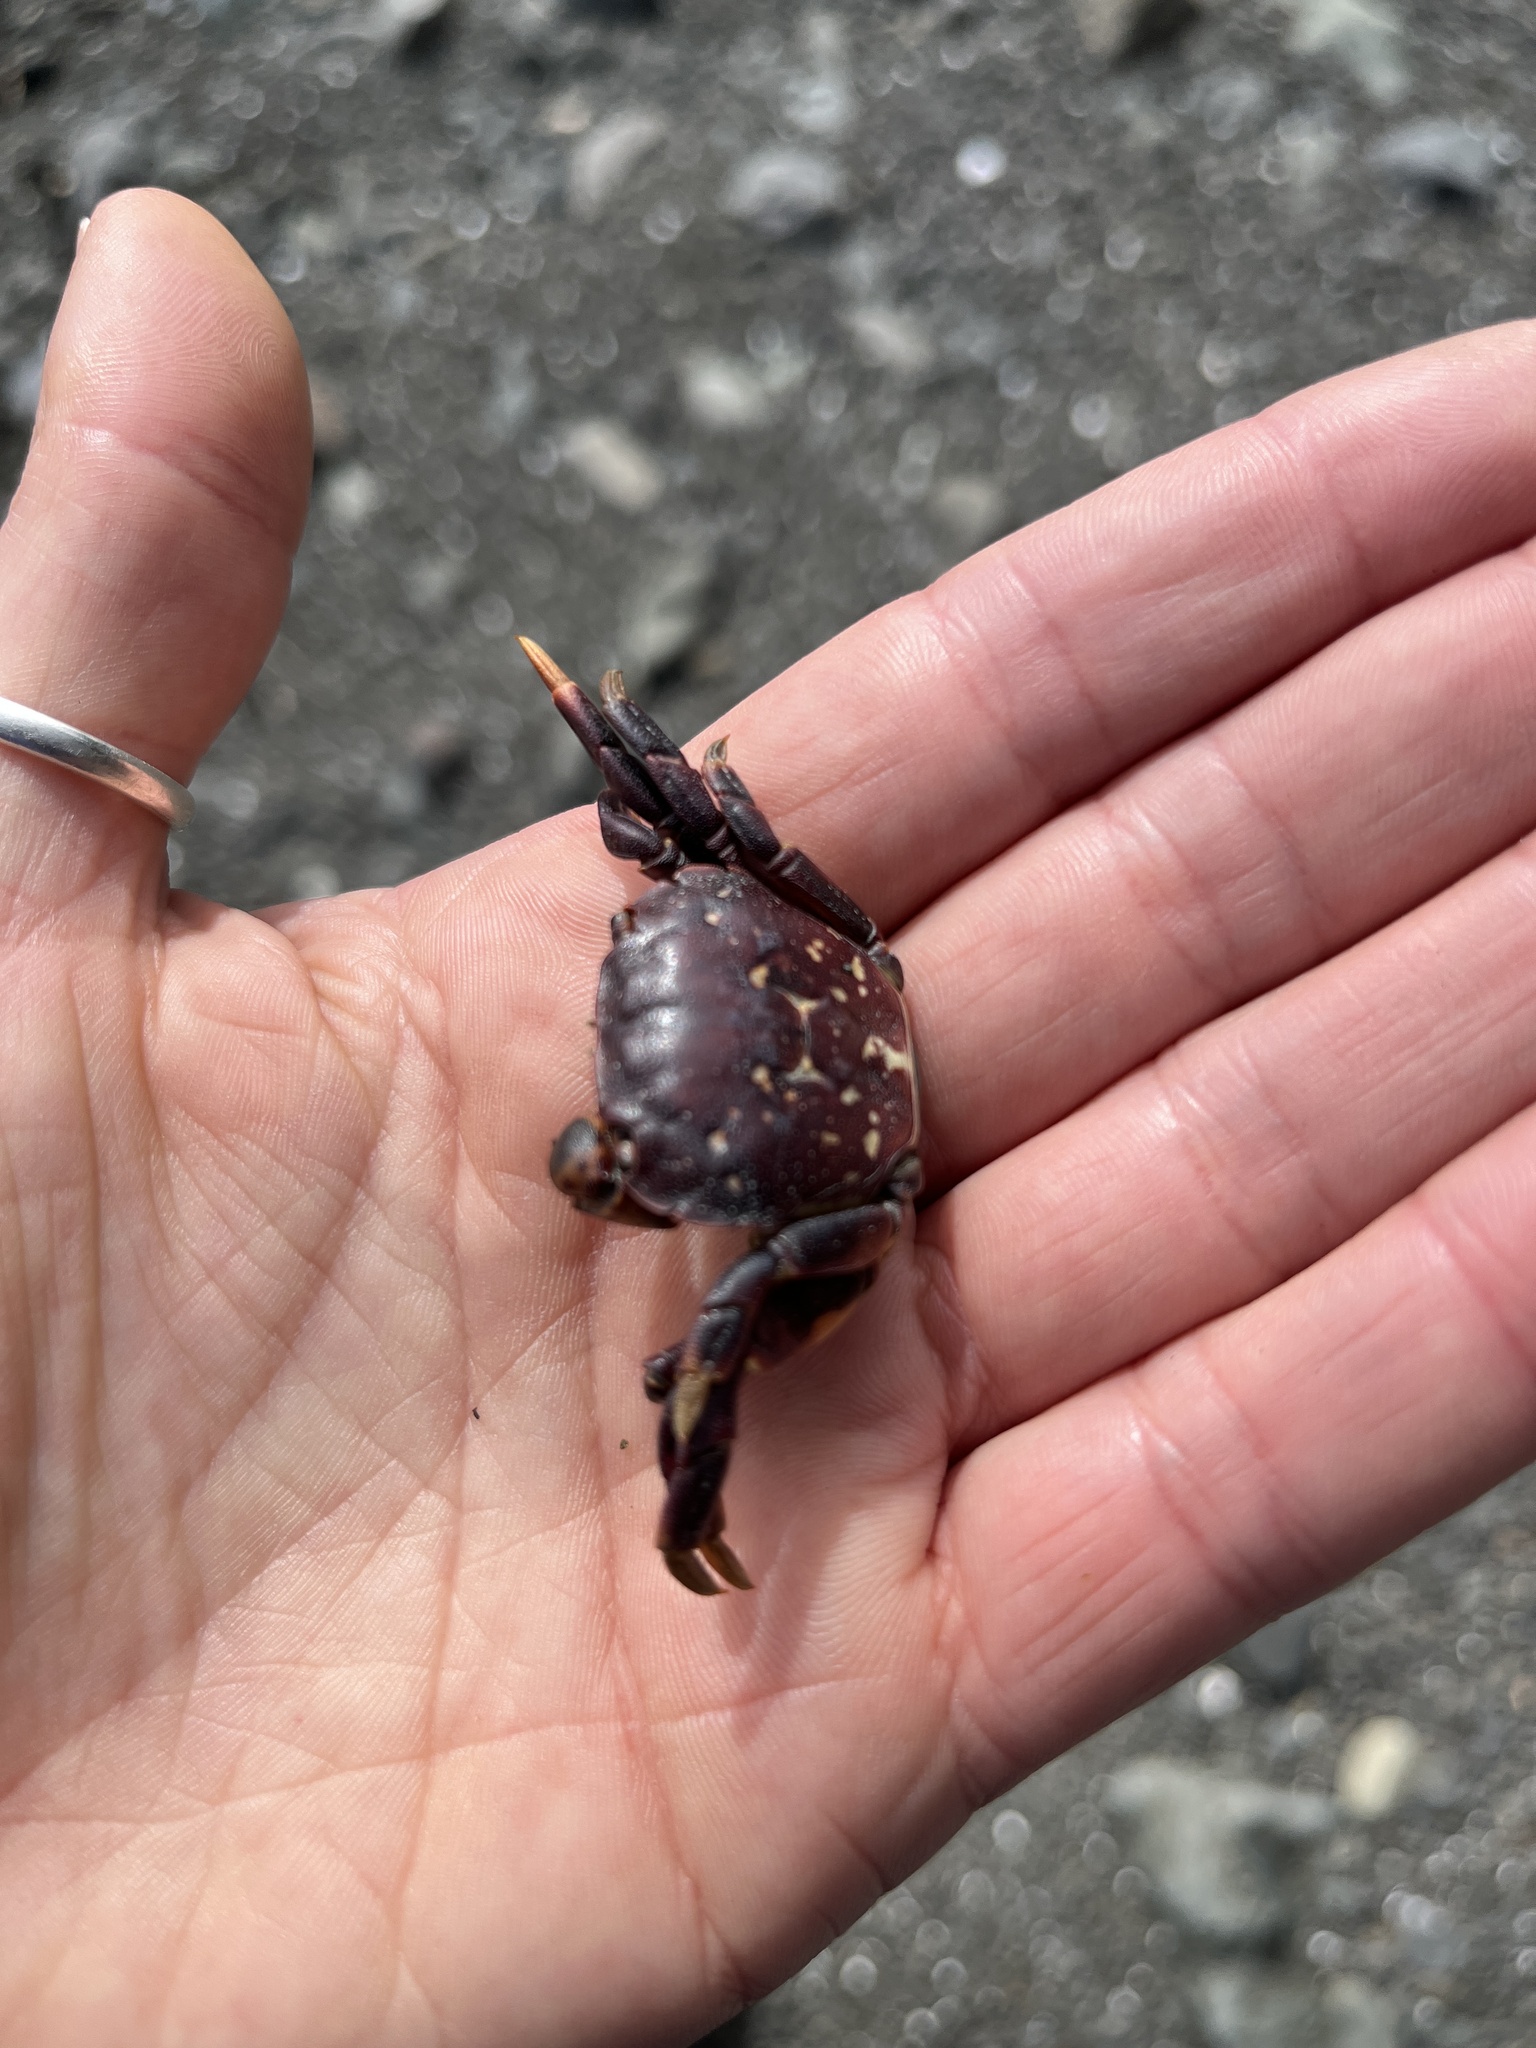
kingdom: Animalia
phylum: Arthropoda
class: Malacostraca
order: Decapoda
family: Varunidae
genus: Hemigrapsus
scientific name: Hemigrapsus nudus
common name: Purple shore crab
